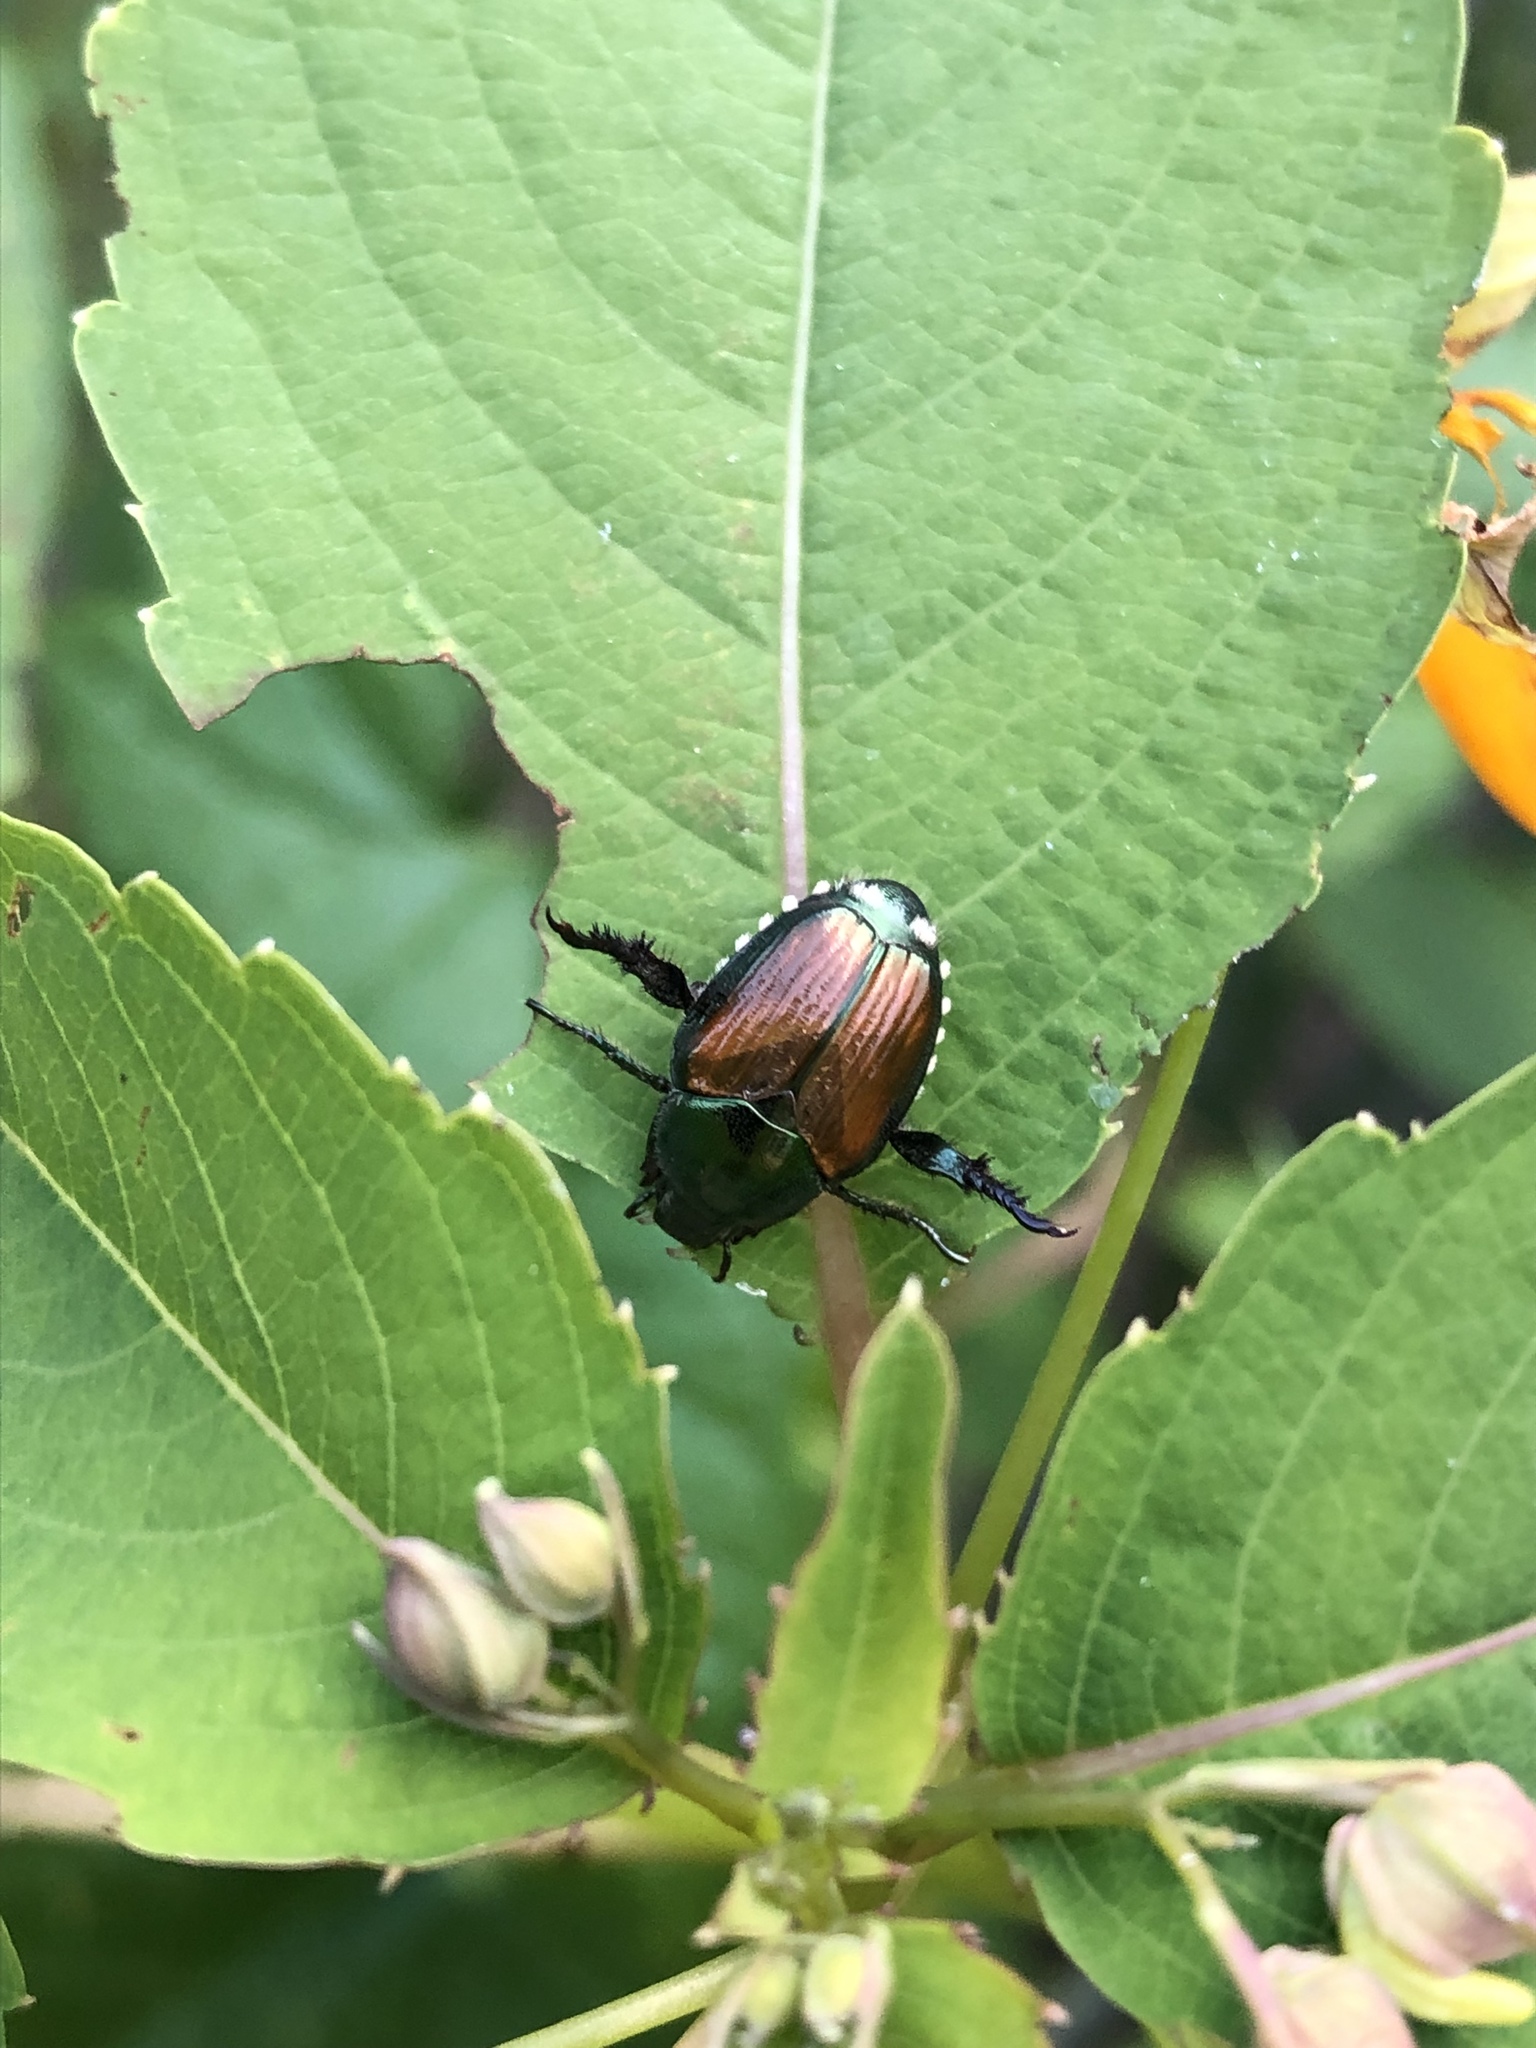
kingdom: Animalia
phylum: Arthropoda
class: Insecta
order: Coleoptera
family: Scarabaeidae
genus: Popillia
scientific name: Popillia japonica
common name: Japanese beetle
